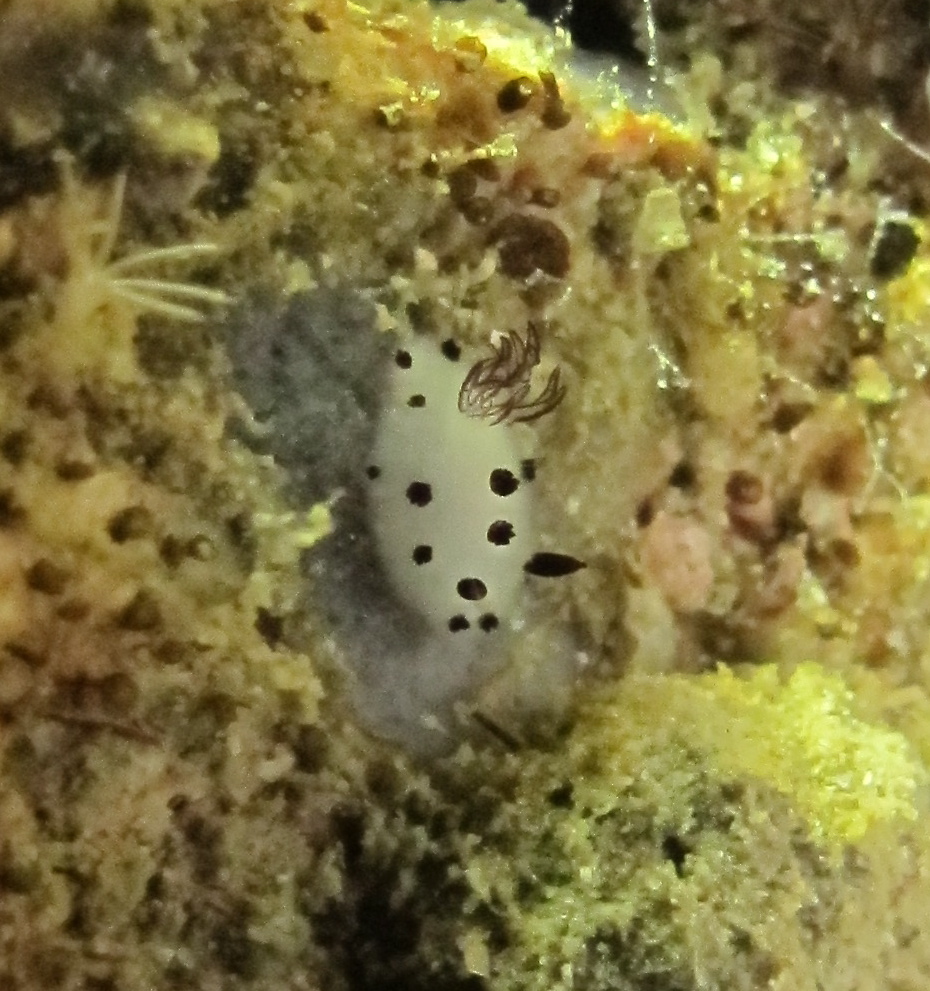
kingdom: Animalia
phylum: Mollusca
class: Gastropoda
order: Nudibranchia
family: Discodorididae
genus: Jorunna
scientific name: Jorunna funebris
